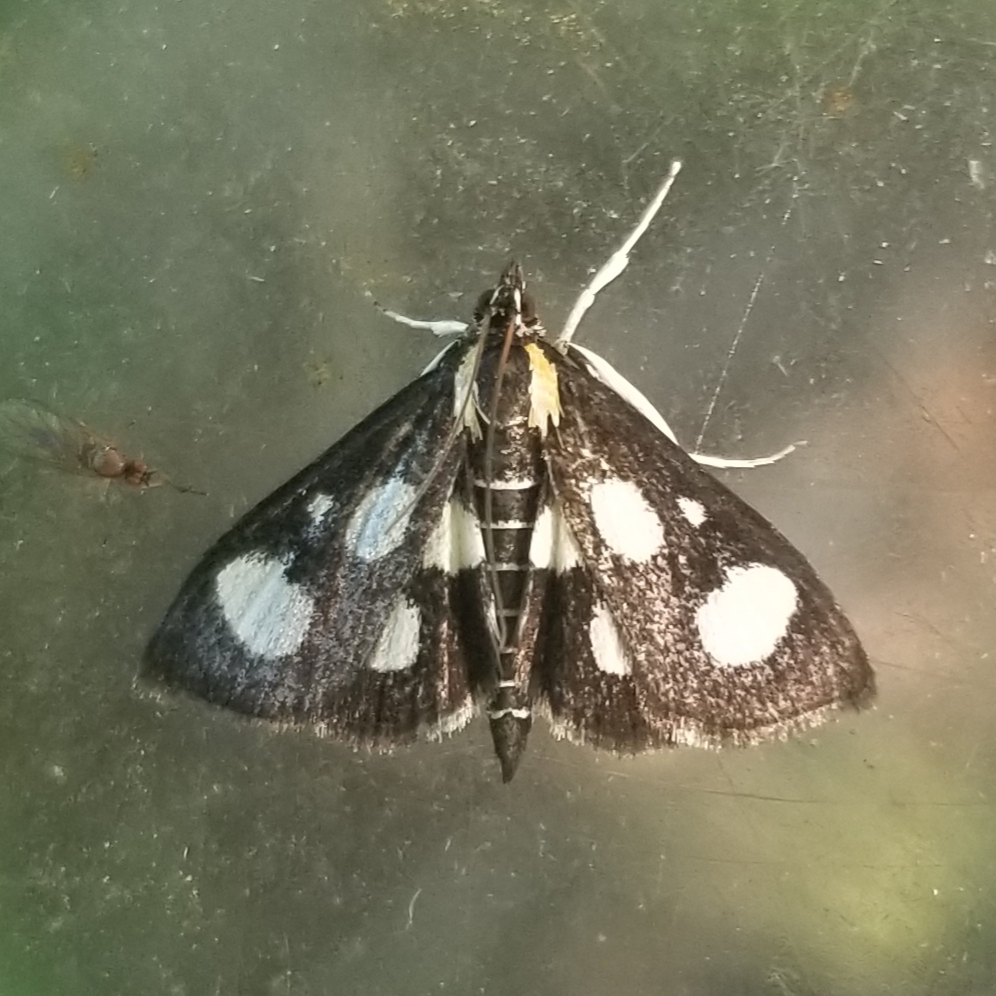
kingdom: Animalia
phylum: Arthropoda
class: Insecta
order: Lepidoptera
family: Crambidae
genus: Anania
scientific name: Anania funebris
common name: White-spotted sable moth
